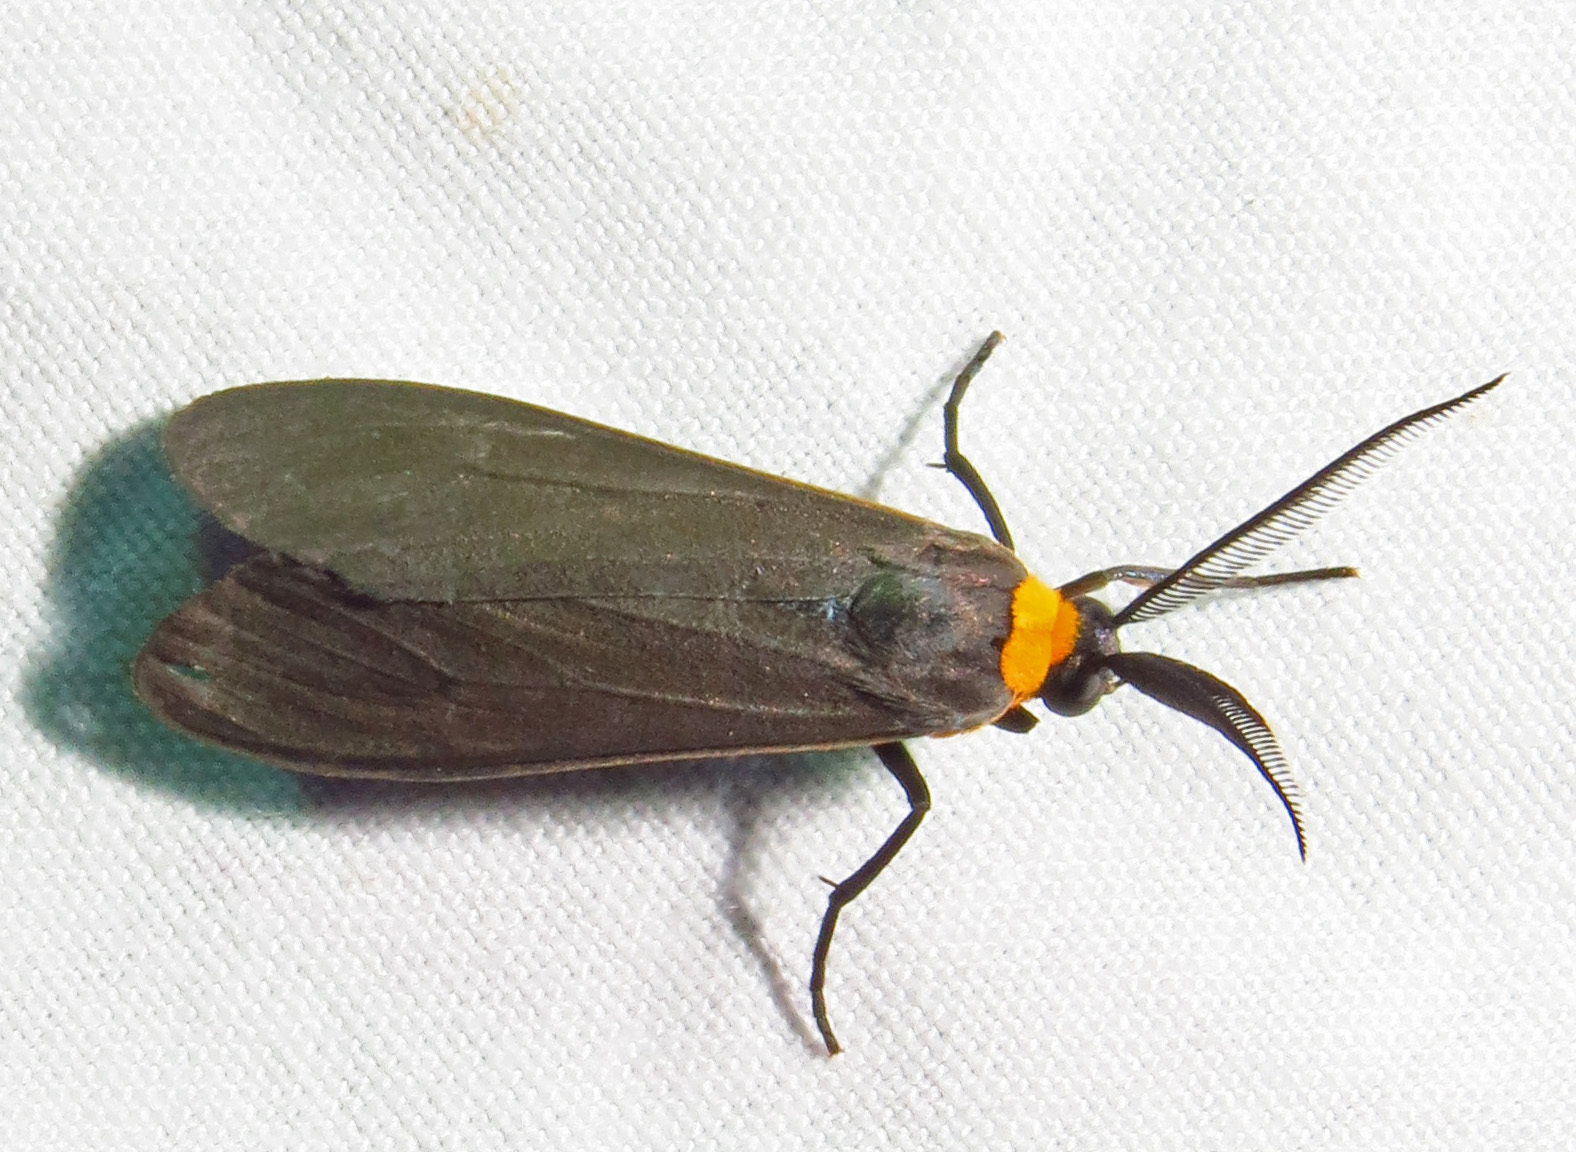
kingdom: Animalia
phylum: Arthropoda
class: Insecta
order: Lepidoptera
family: Erebidae
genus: Cisseps
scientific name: Cisseps fulvicollis
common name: Yellow-collared scape moth
